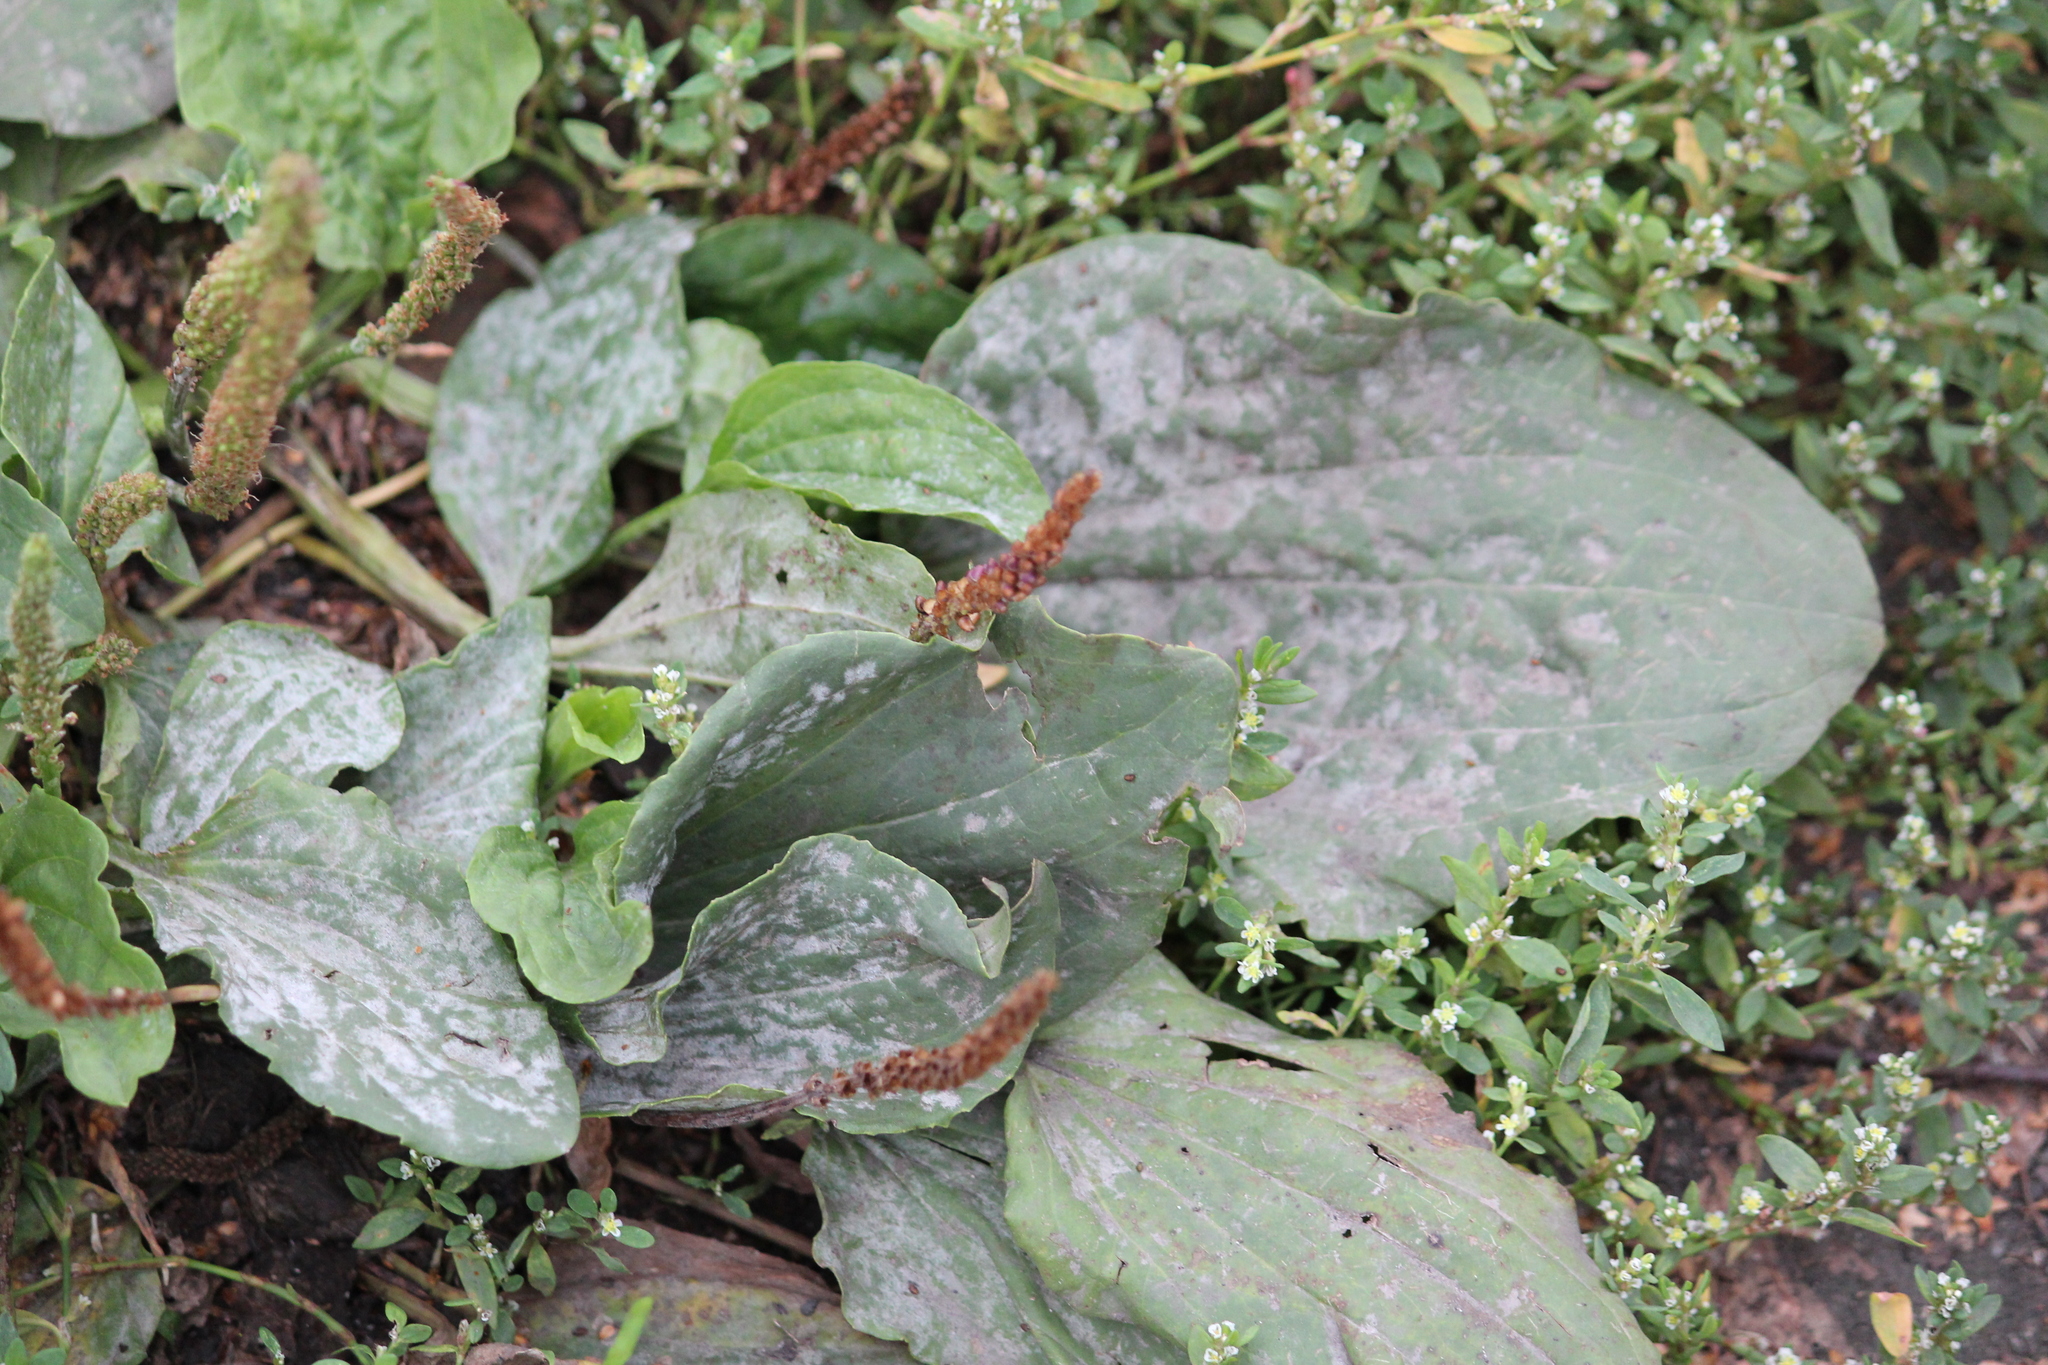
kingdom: Plantae
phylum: Tracheophyta
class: Magnoliopsida
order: Lamiales
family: Plantaginaceae
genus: Plantago
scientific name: Plantago major
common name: Common plantain
